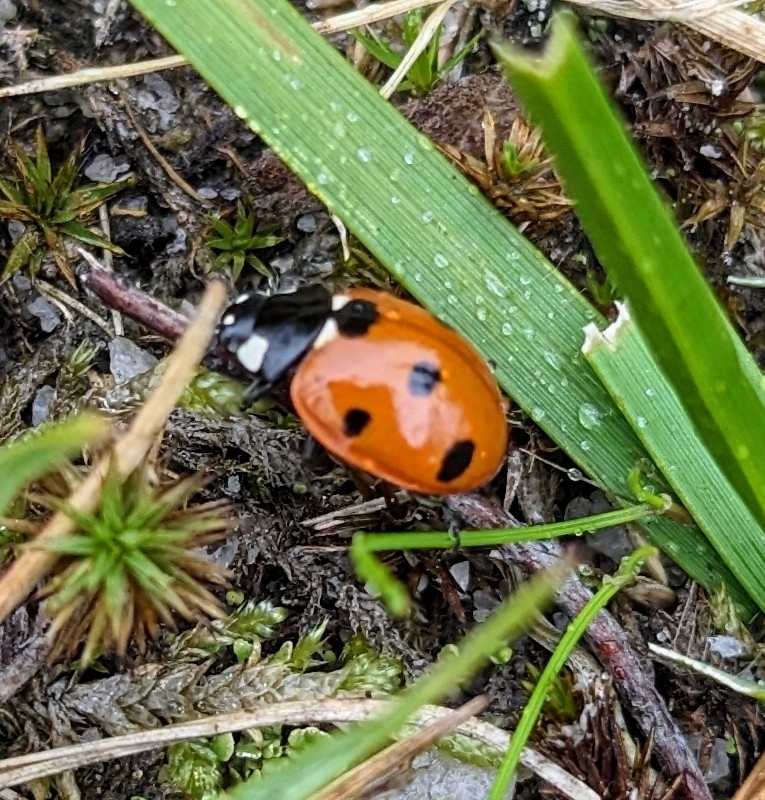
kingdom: Animalia
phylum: Arthropoda
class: Insecta
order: Coleoptera
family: Coccinellidae
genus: Coccinella
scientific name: Coccinella septempunctata
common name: Sevenspotted lady beetle
